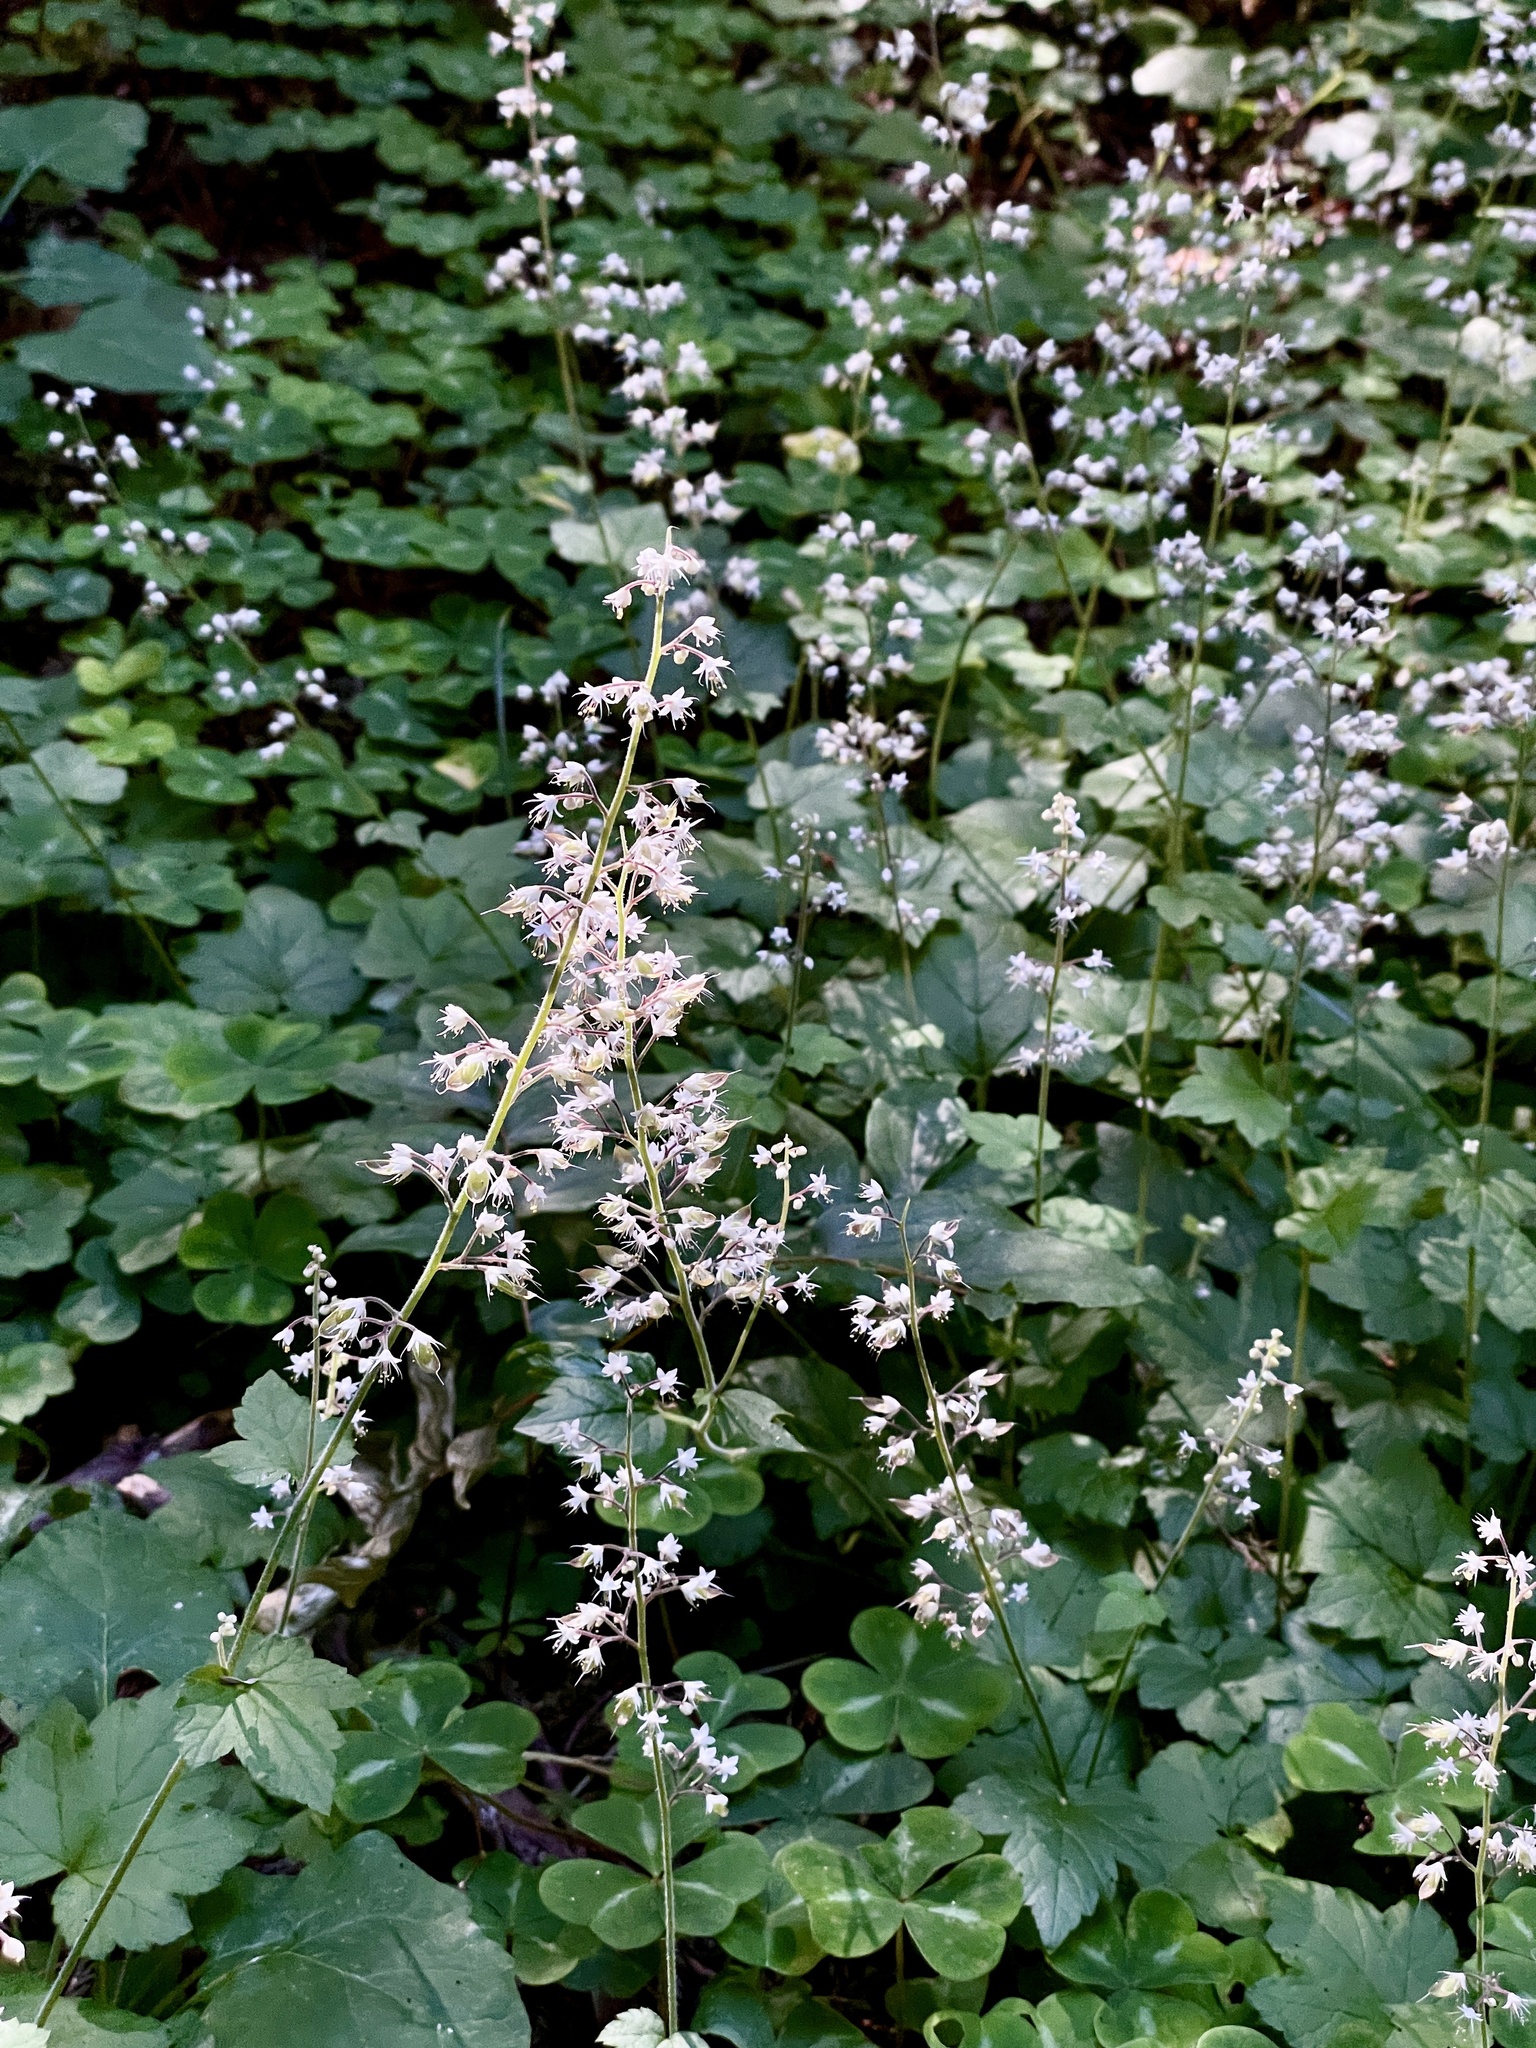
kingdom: Plantae
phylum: Tracheophyta
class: Magnoliopsida
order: Saxifragales
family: Saxifragaceae
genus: Tiarella
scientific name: Tiarella trifoliata
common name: Sugar-scoop
